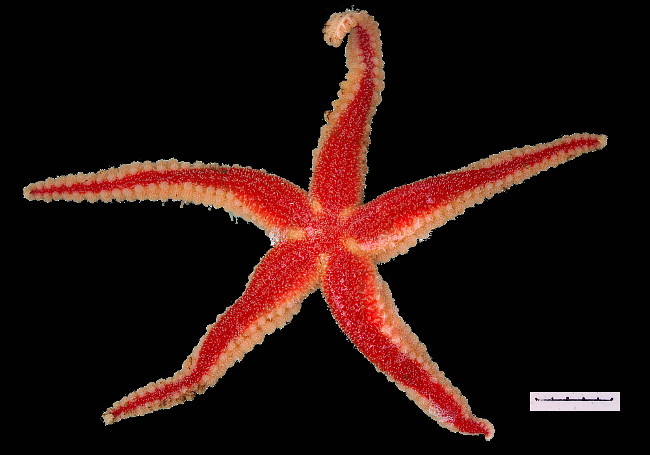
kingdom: Animalia
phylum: Echinodermata
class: Asteroidea
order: Forcipulatida
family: Asteriidae
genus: Urasterias
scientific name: Urasterias lincki
